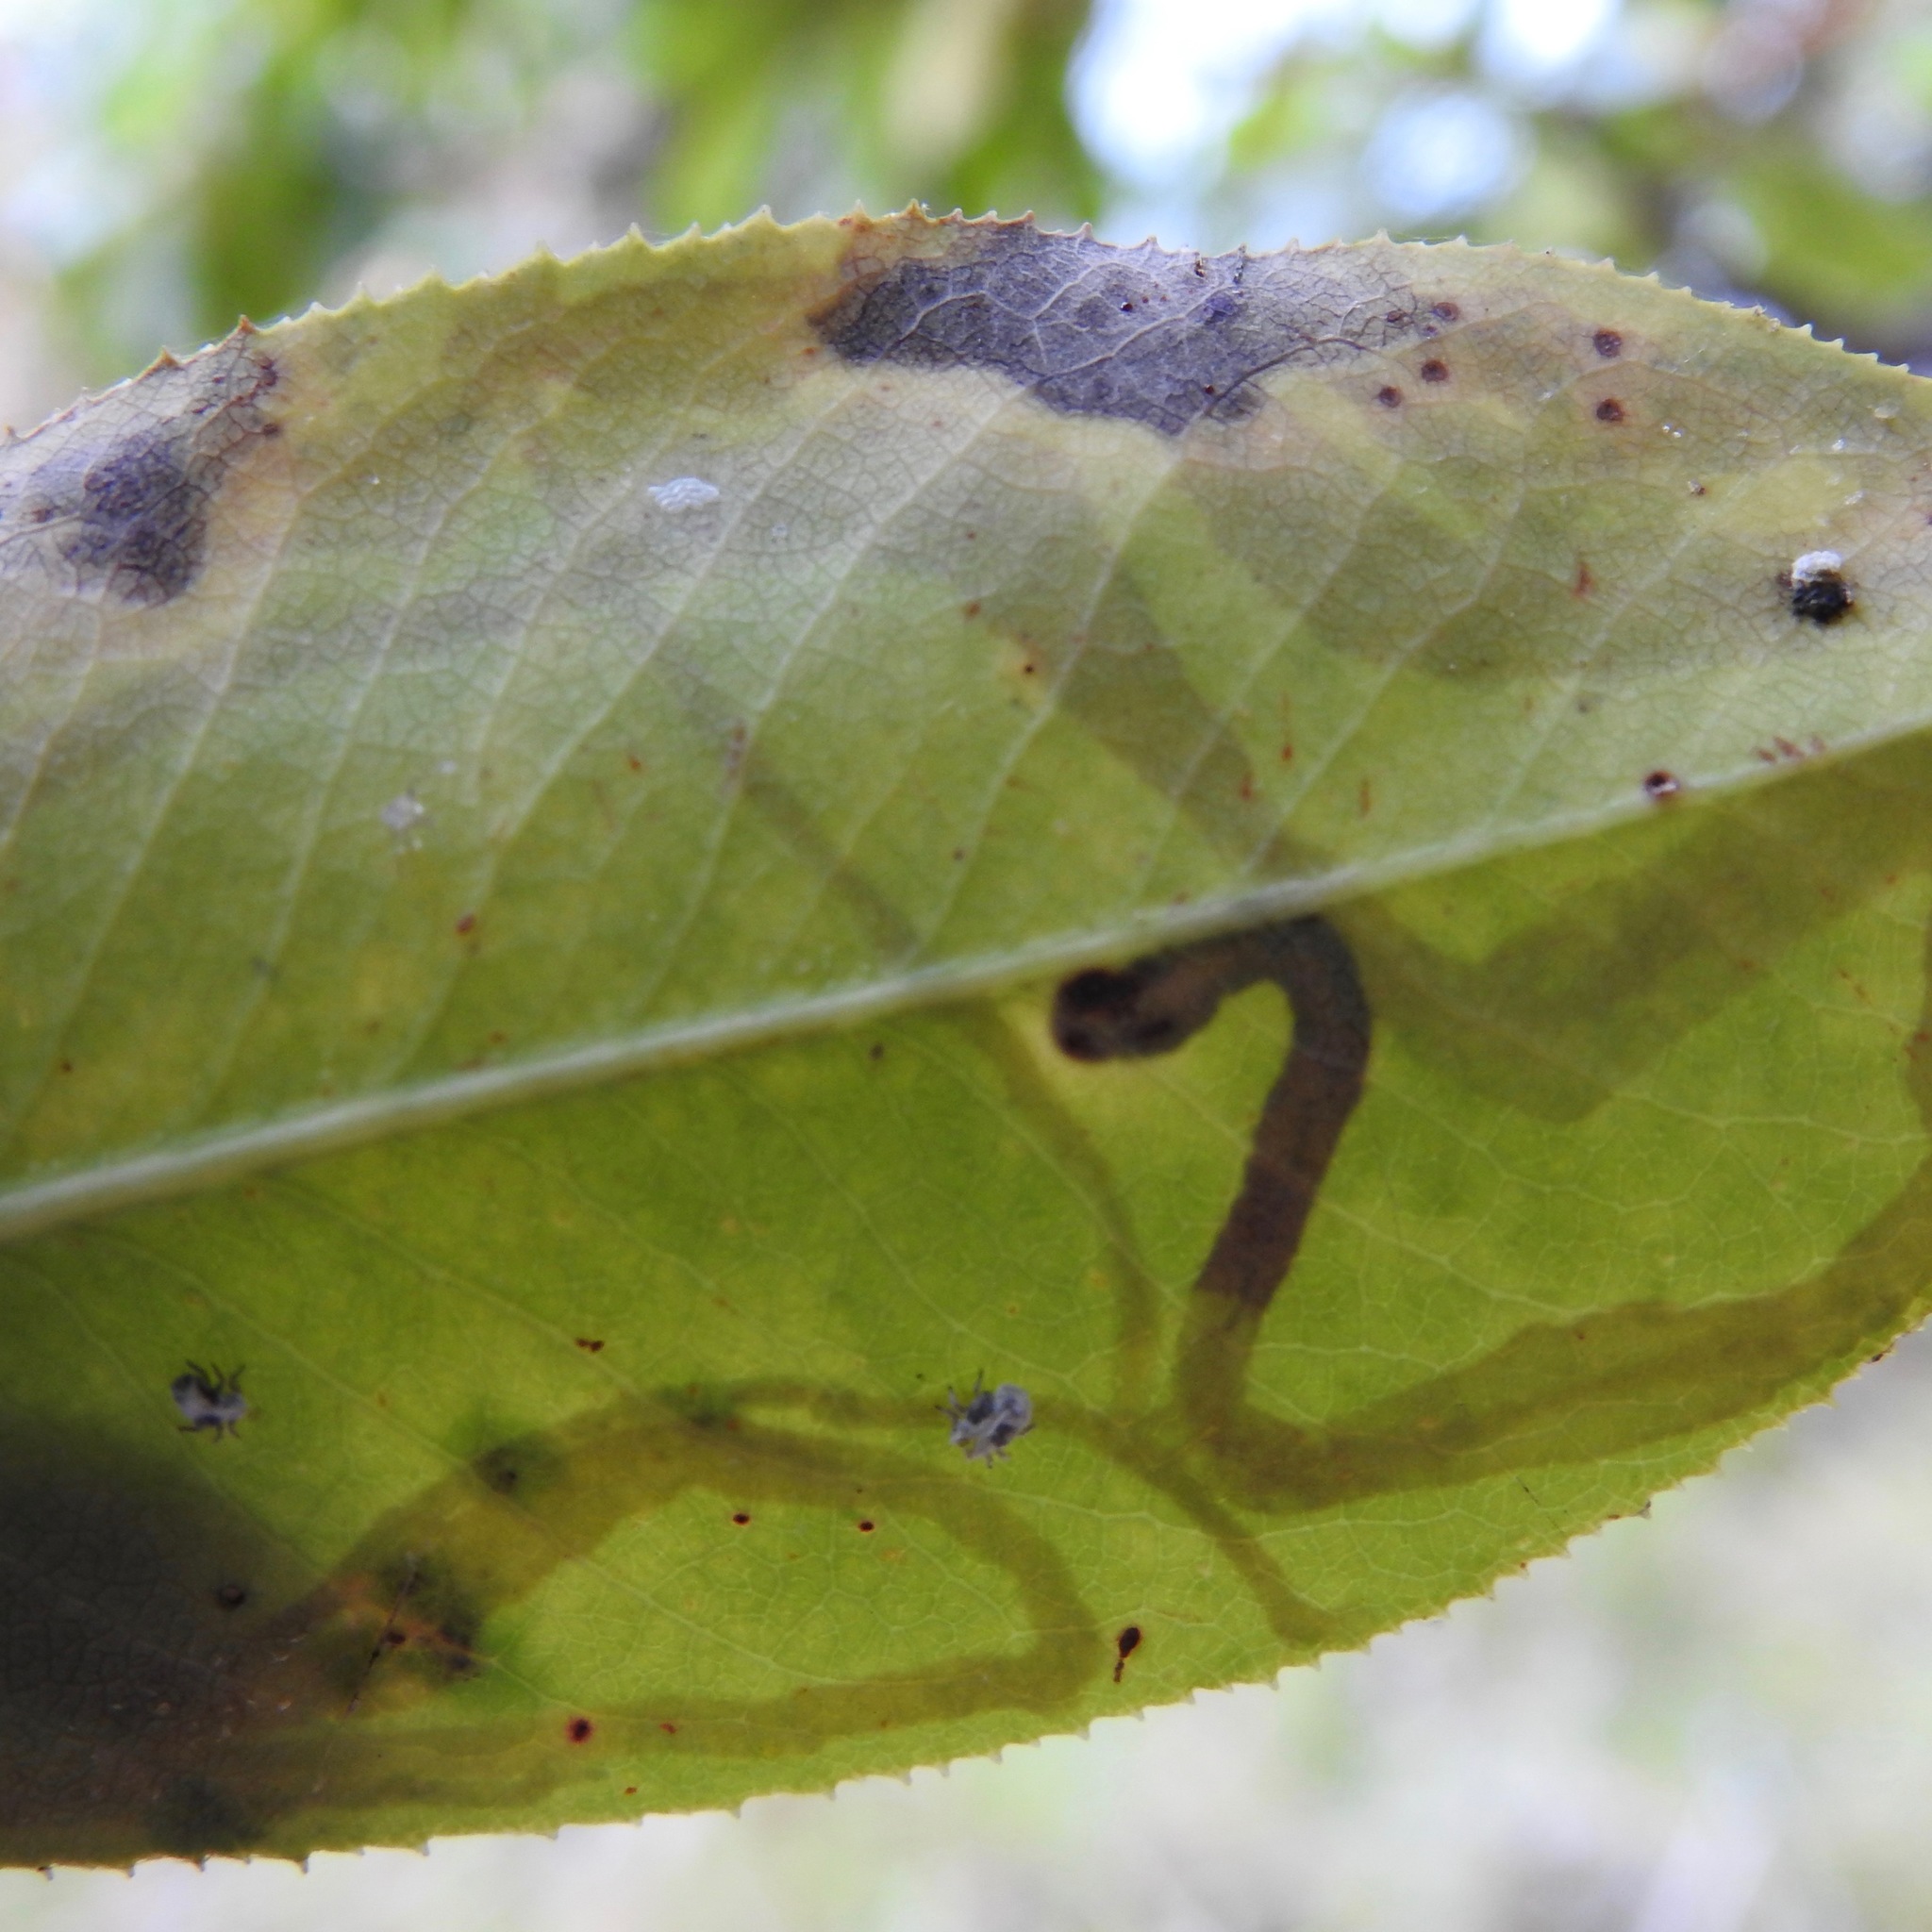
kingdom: Animalia
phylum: Arthropoda
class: Insecta
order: Lepidoptera
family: Gracillariidae
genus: Marmara
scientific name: Marmara arbutiella
